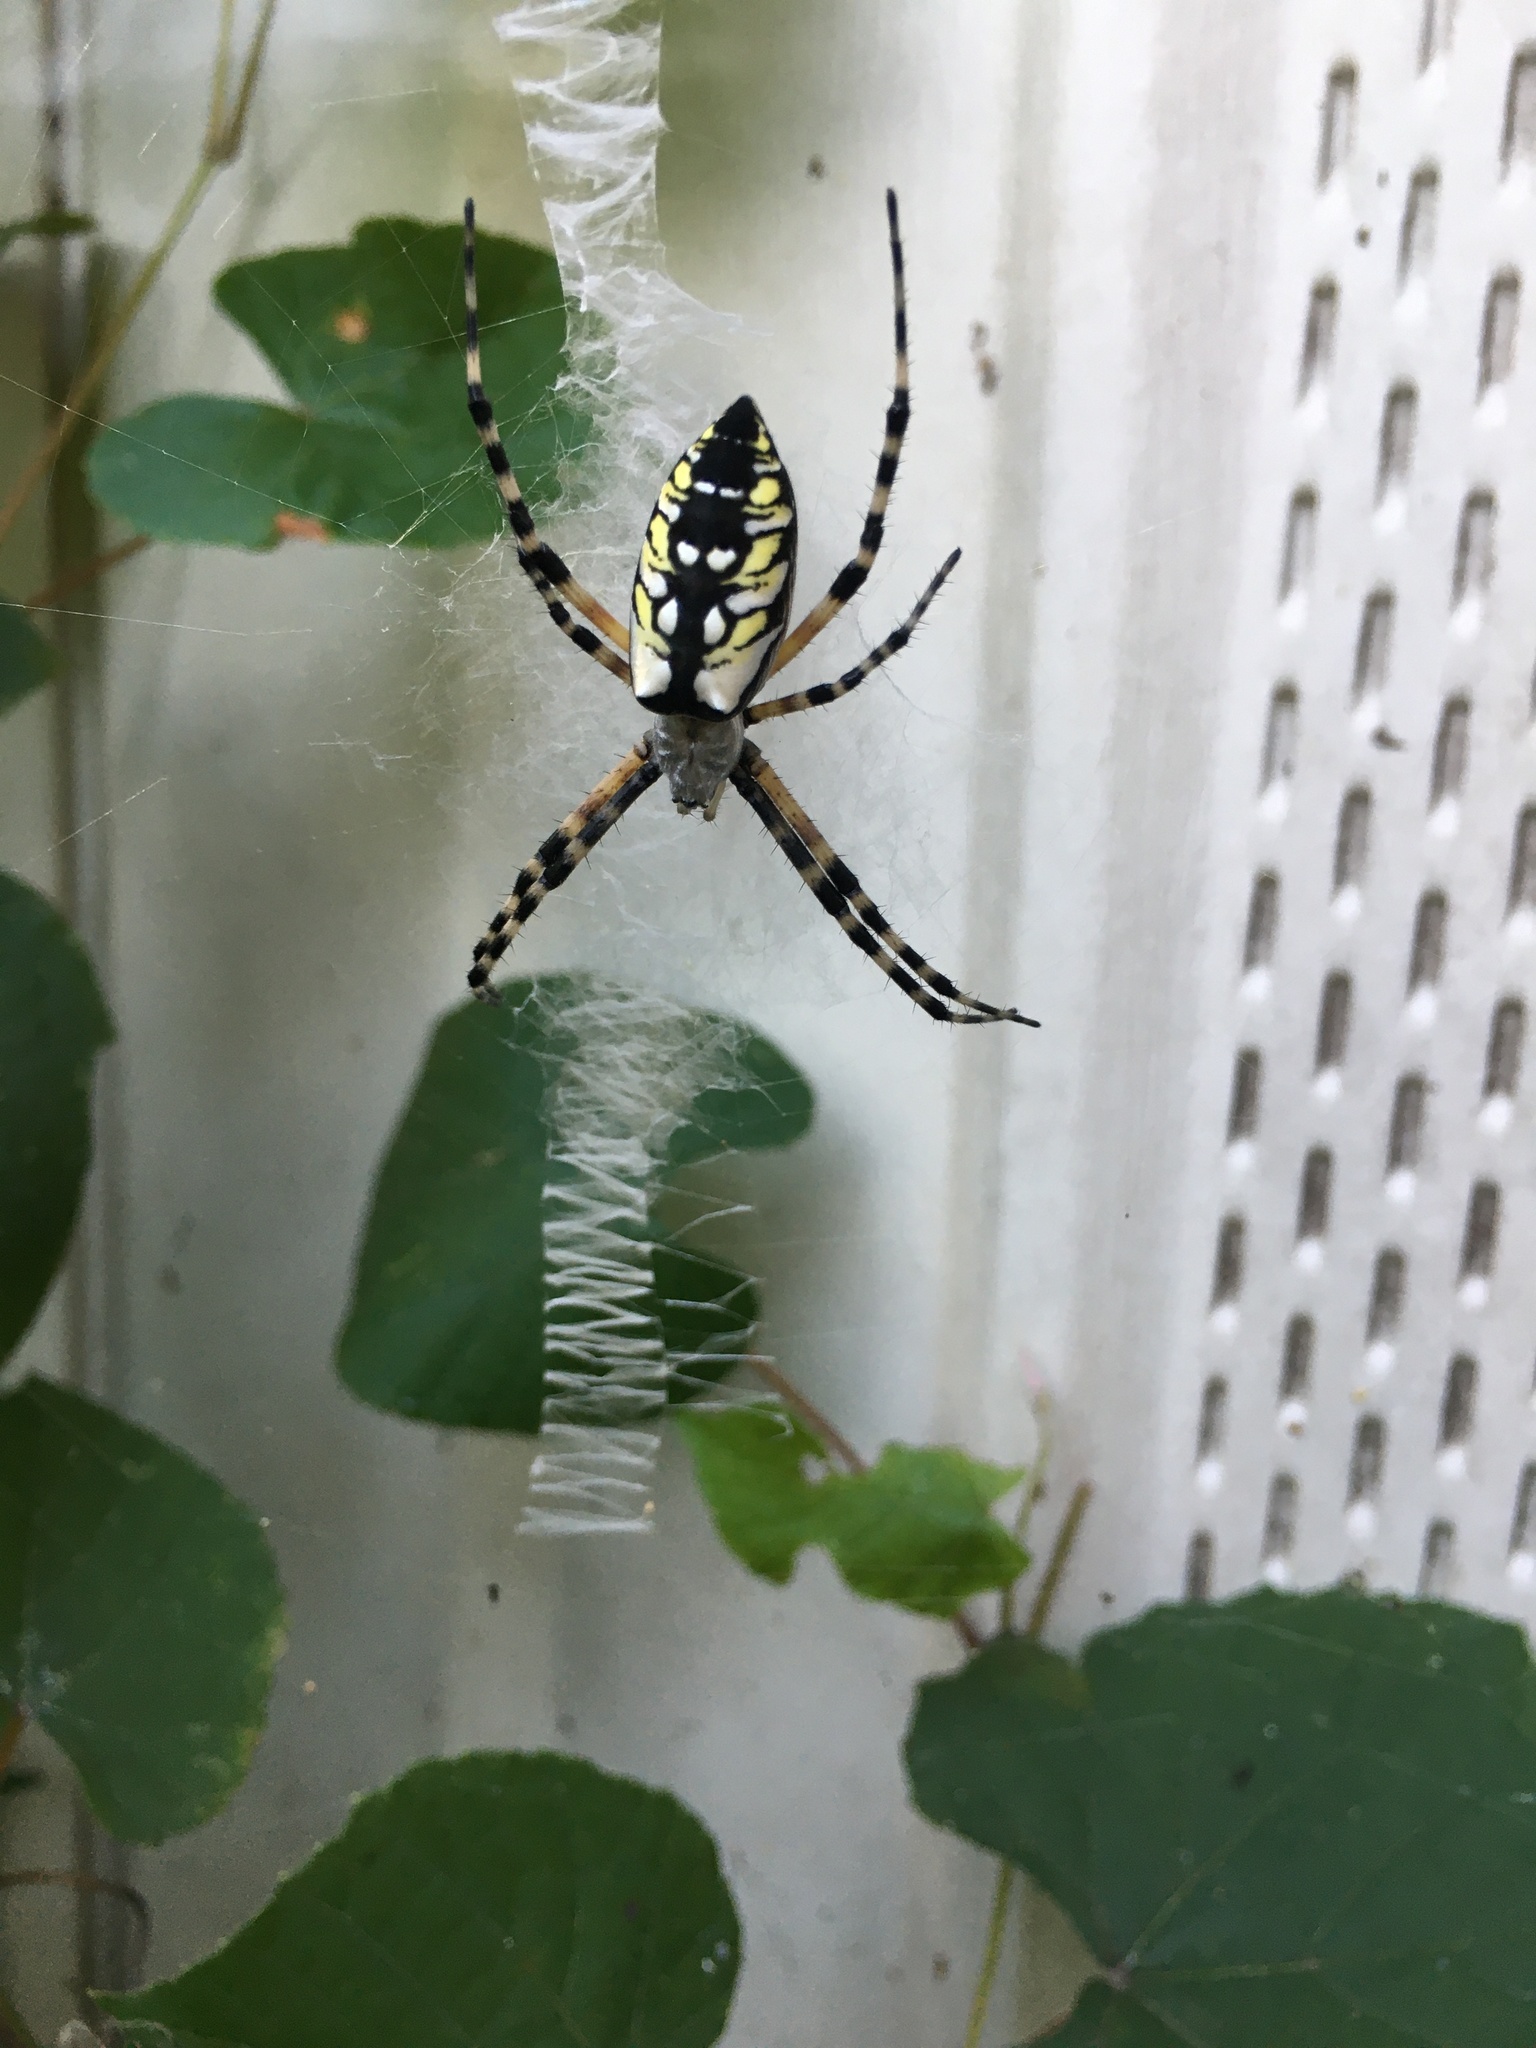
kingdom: Animalia
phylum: Arthropoda
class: Arachnida
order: Araneae
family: Araneidae
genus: Argiope
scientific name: Argiope aurantia
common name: Orb weavers
